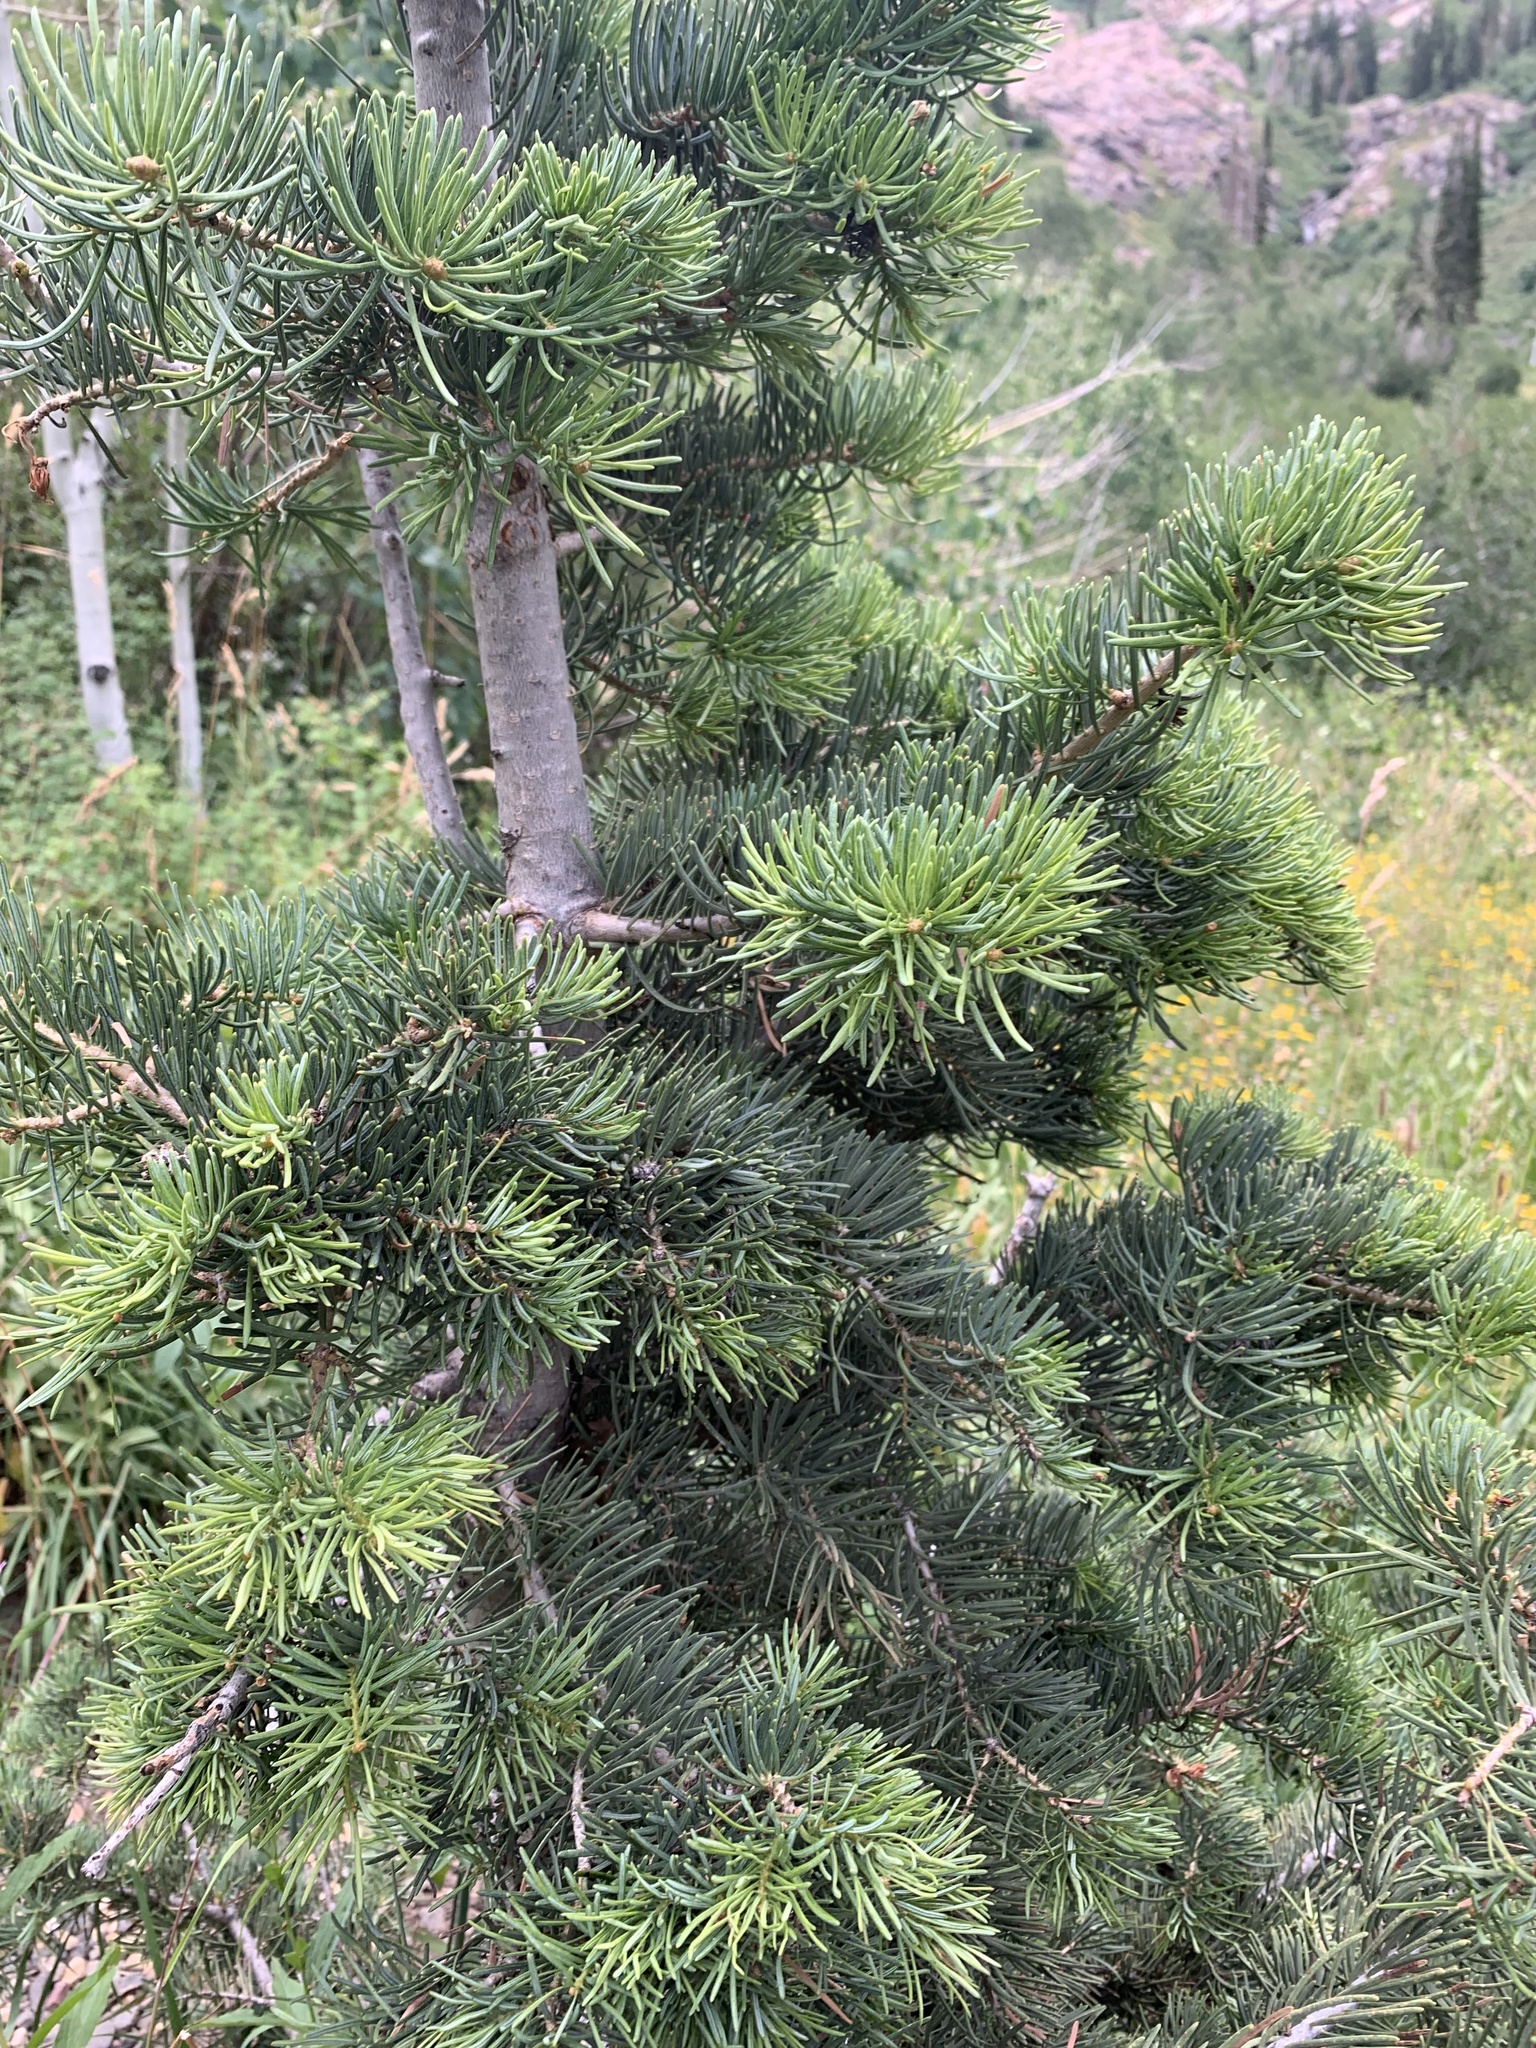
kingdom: Plantae
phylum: Tracheophyta
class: Pinopsida
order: Pinales
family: Pinaceae
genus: Abies
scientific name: Abies concolor
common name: Colorado fir
